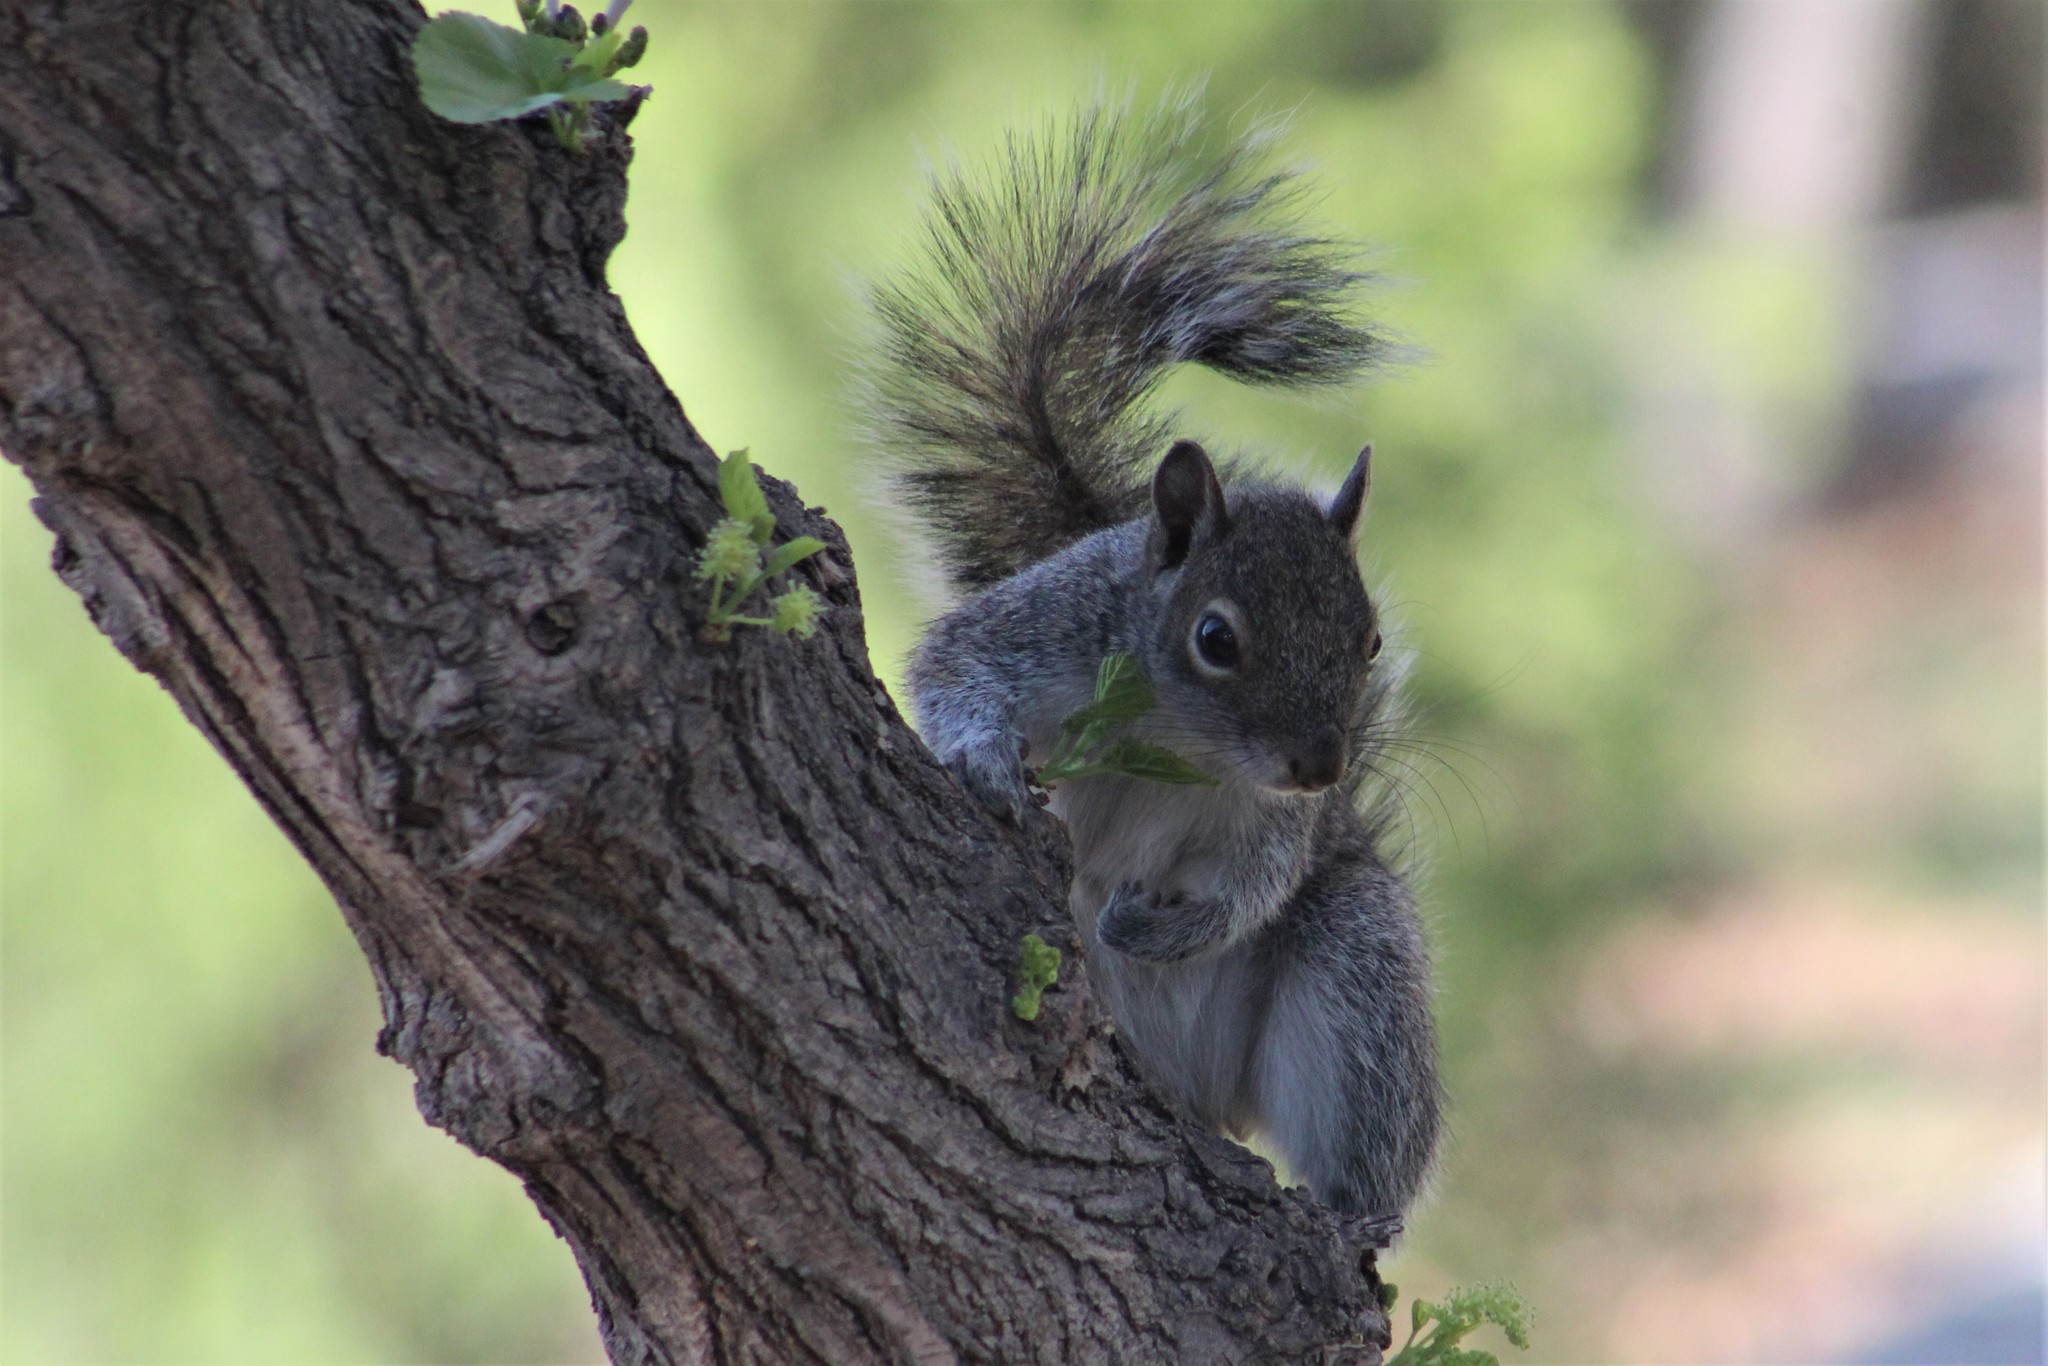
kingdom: Animalia
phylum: Chordata
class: Mammalia
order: Rodentia
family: Sciuridae
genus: Sciurus
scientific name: Sciurus alleni
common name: Allen's squirrel
